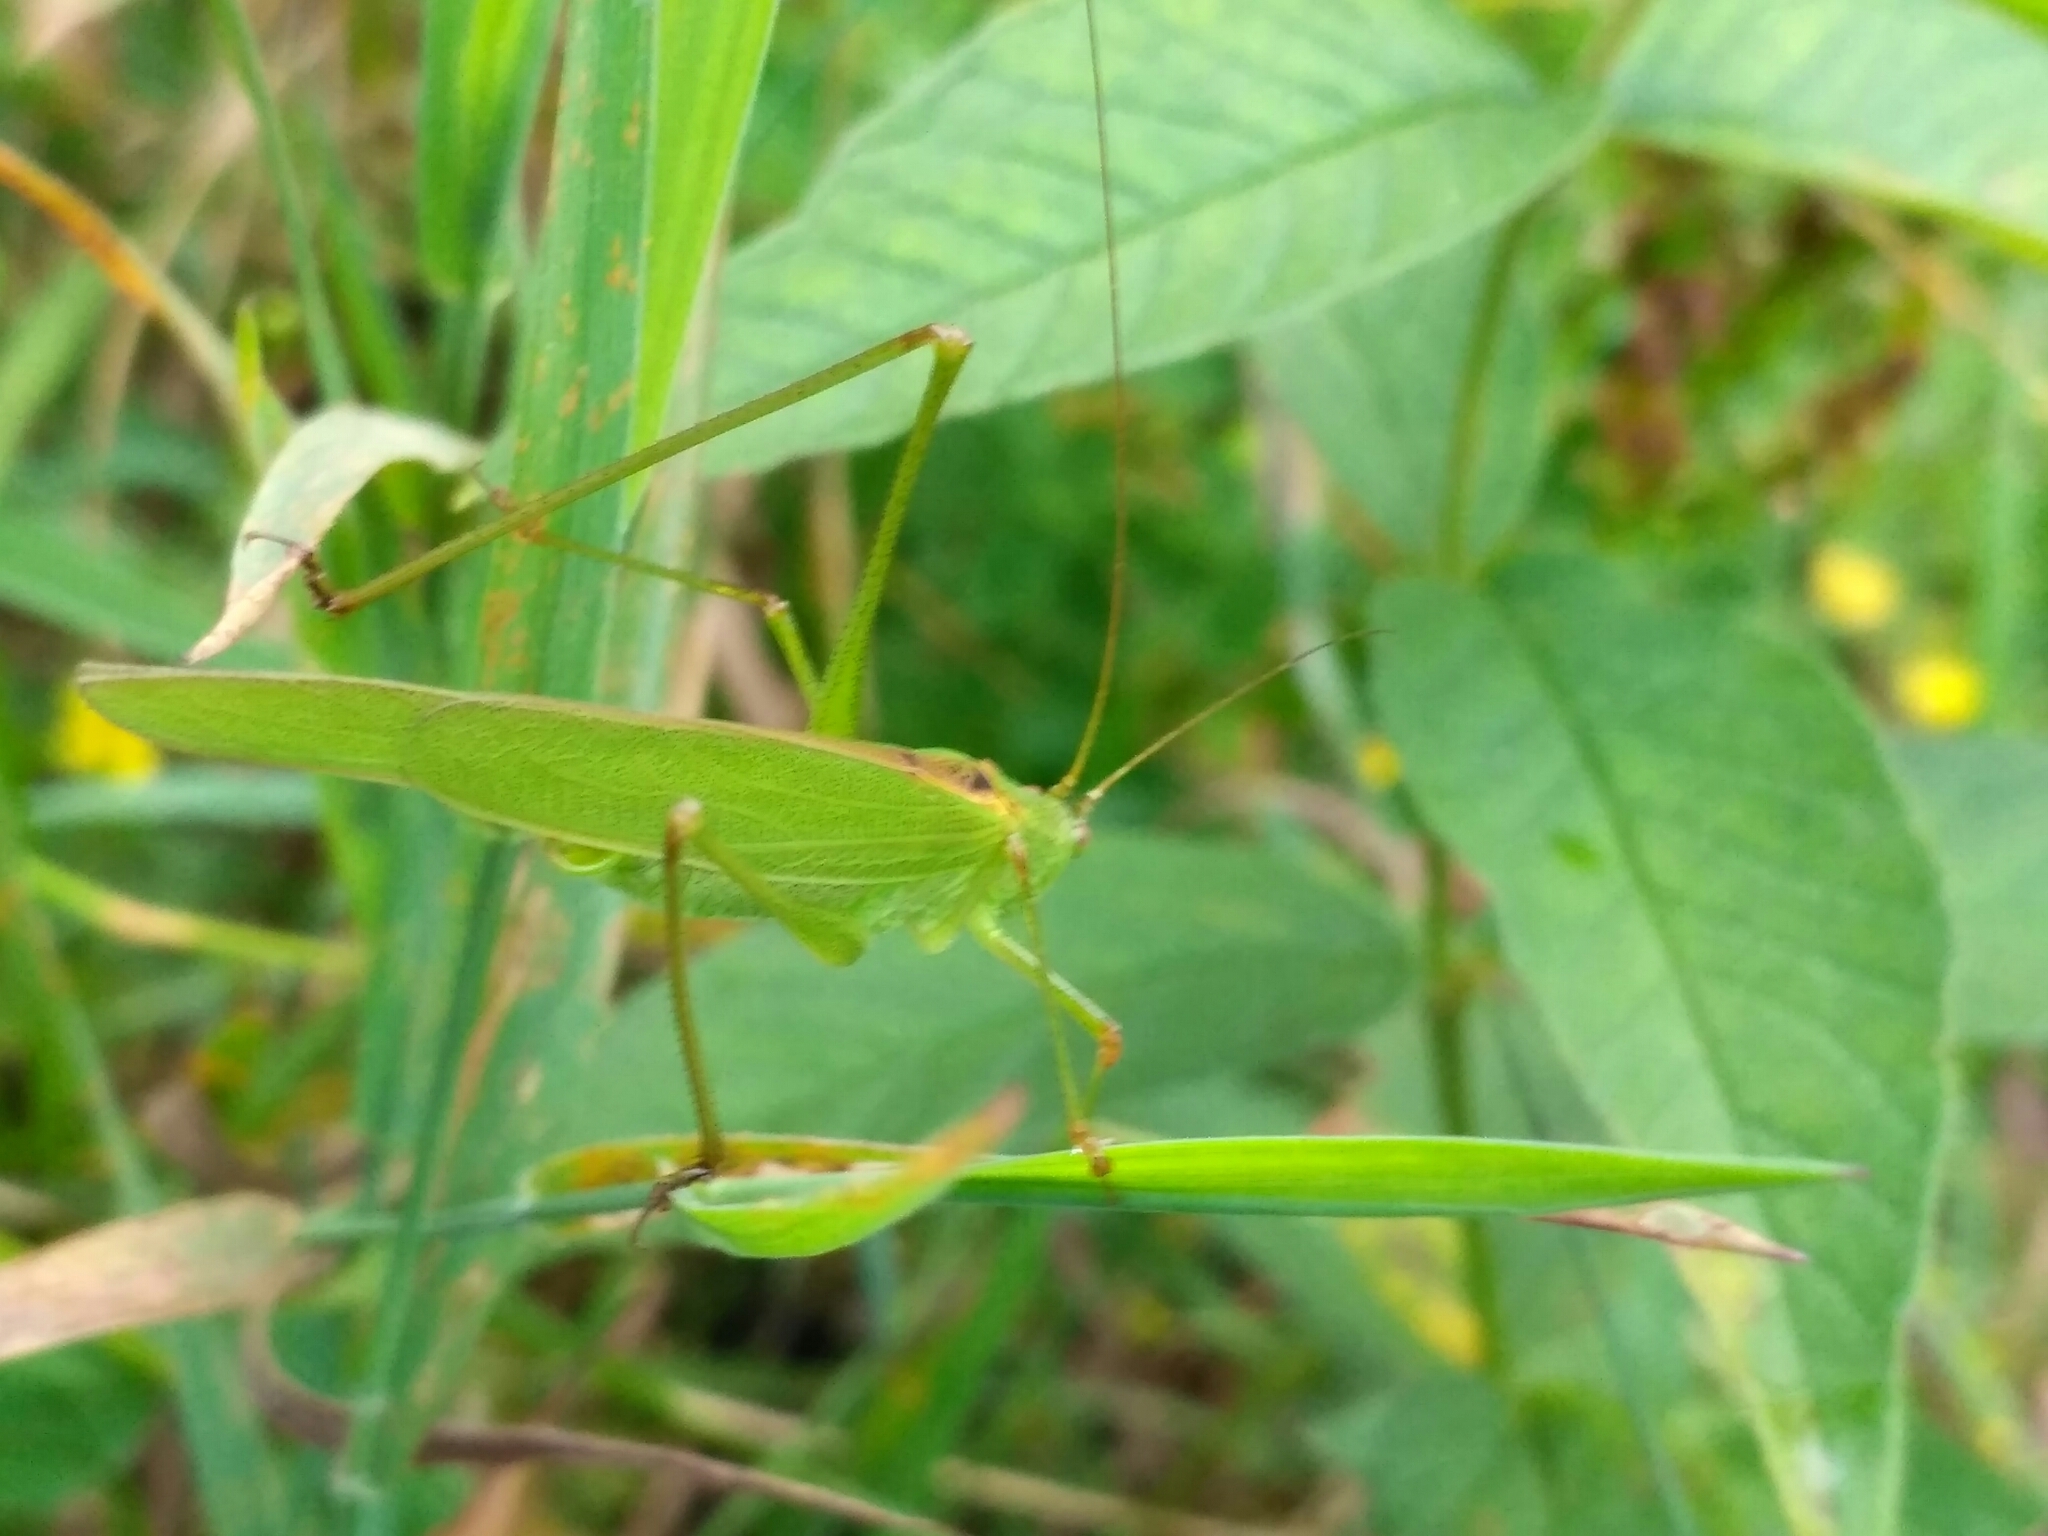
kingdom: Animalia
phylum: Arthropoda
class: Insecta
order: Orthoptera
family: Tettigoniidae
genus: Phaneroptera
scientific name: Phaneroptera falcata
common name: Sickle-bearing bush-cricket
